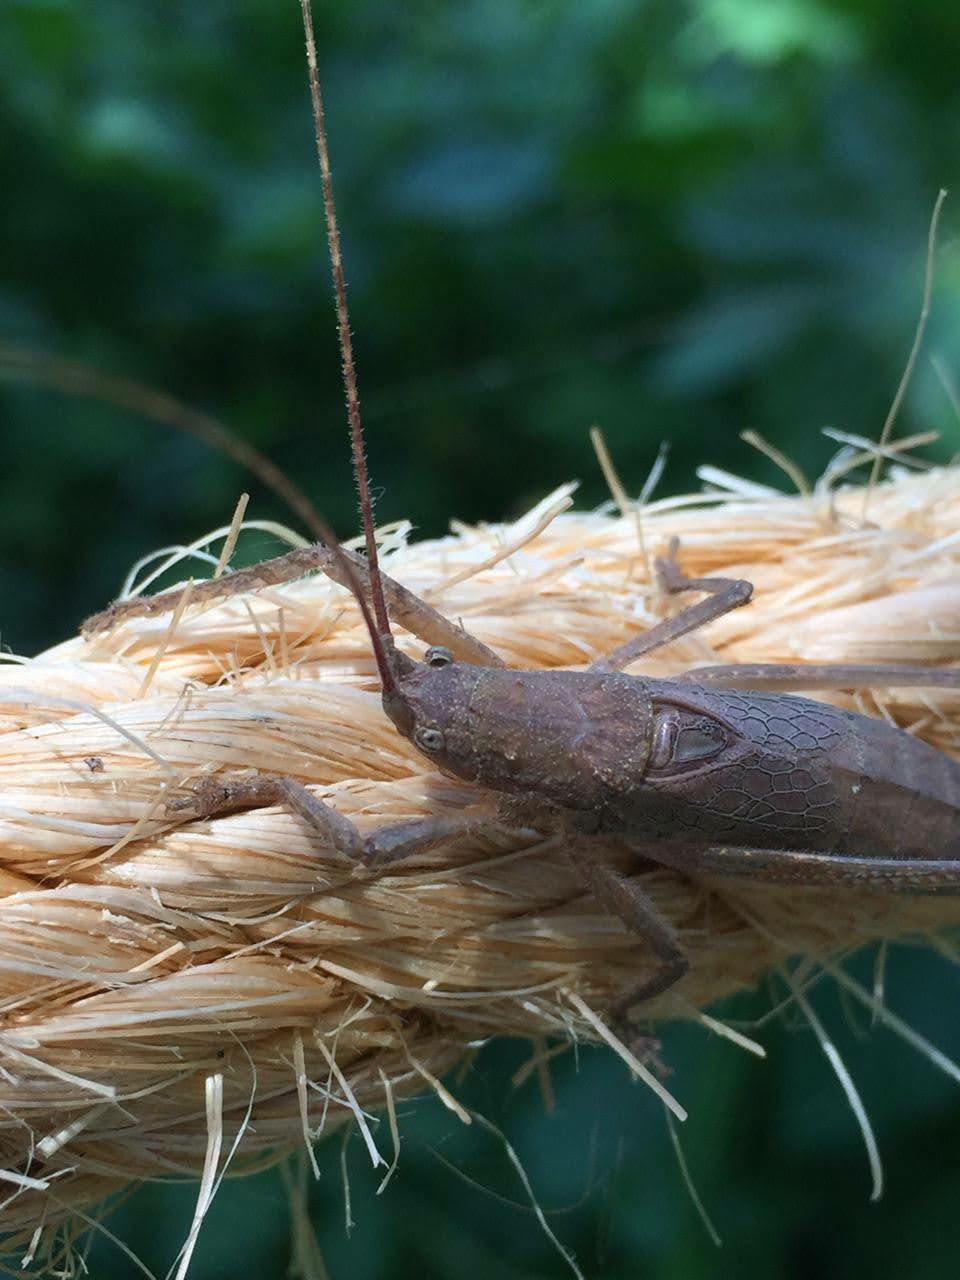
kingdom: Animalia
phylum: Arthropoda
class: Insecta
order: Orthoptera
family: Tettigoniidae
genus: Dasyscelus
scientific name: Dasyscelus normalis
